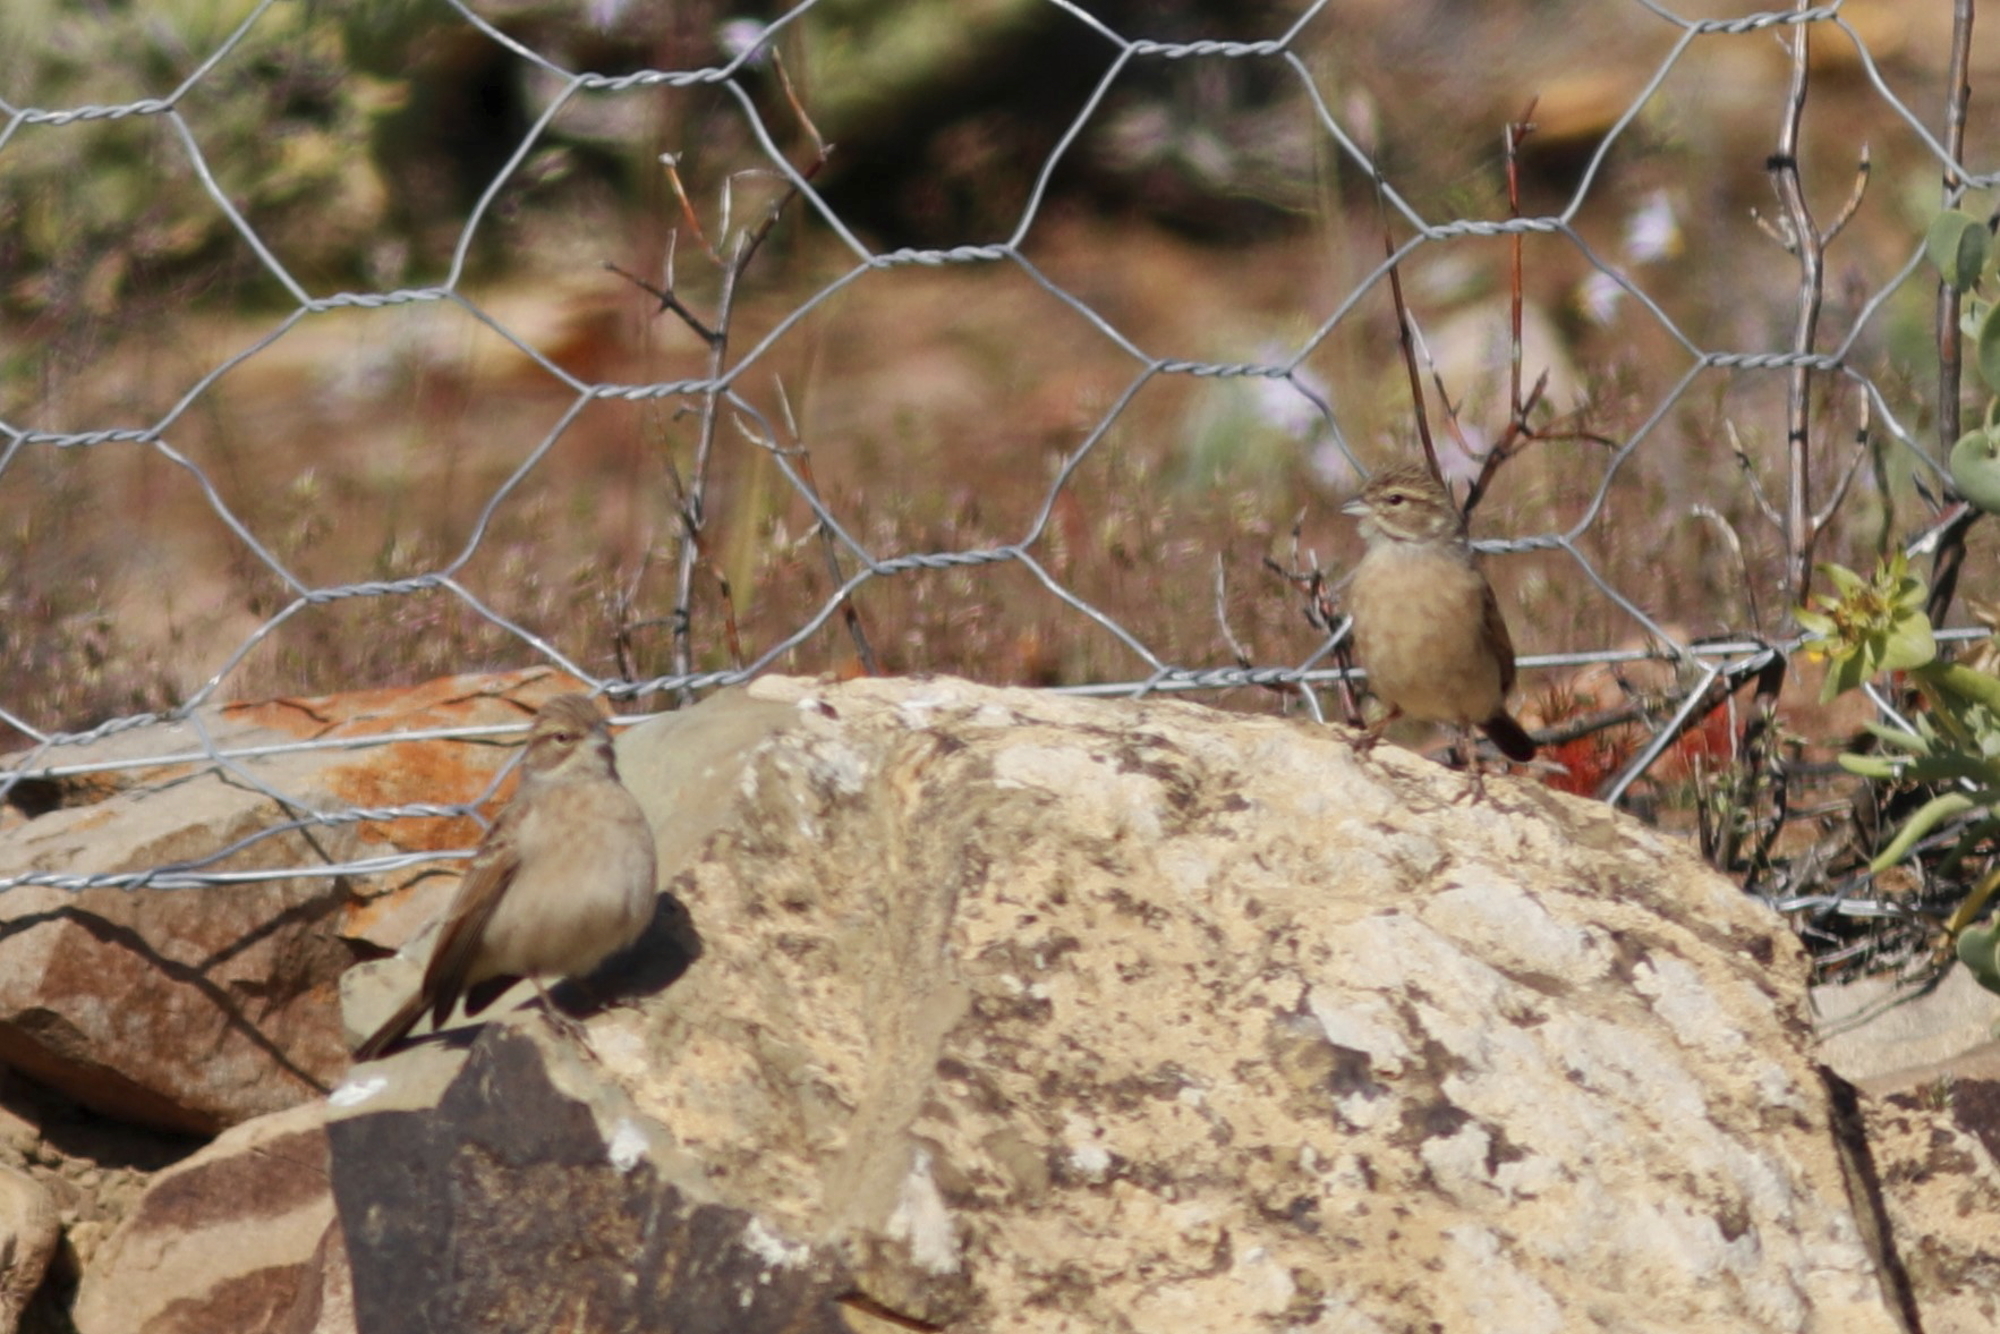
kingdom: Animalia
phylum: Chordata
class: Aves
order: Passeriformes
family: Emberizidae
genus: Emberiza
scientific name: Emberiza impetuani
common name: Lark-like bunting
